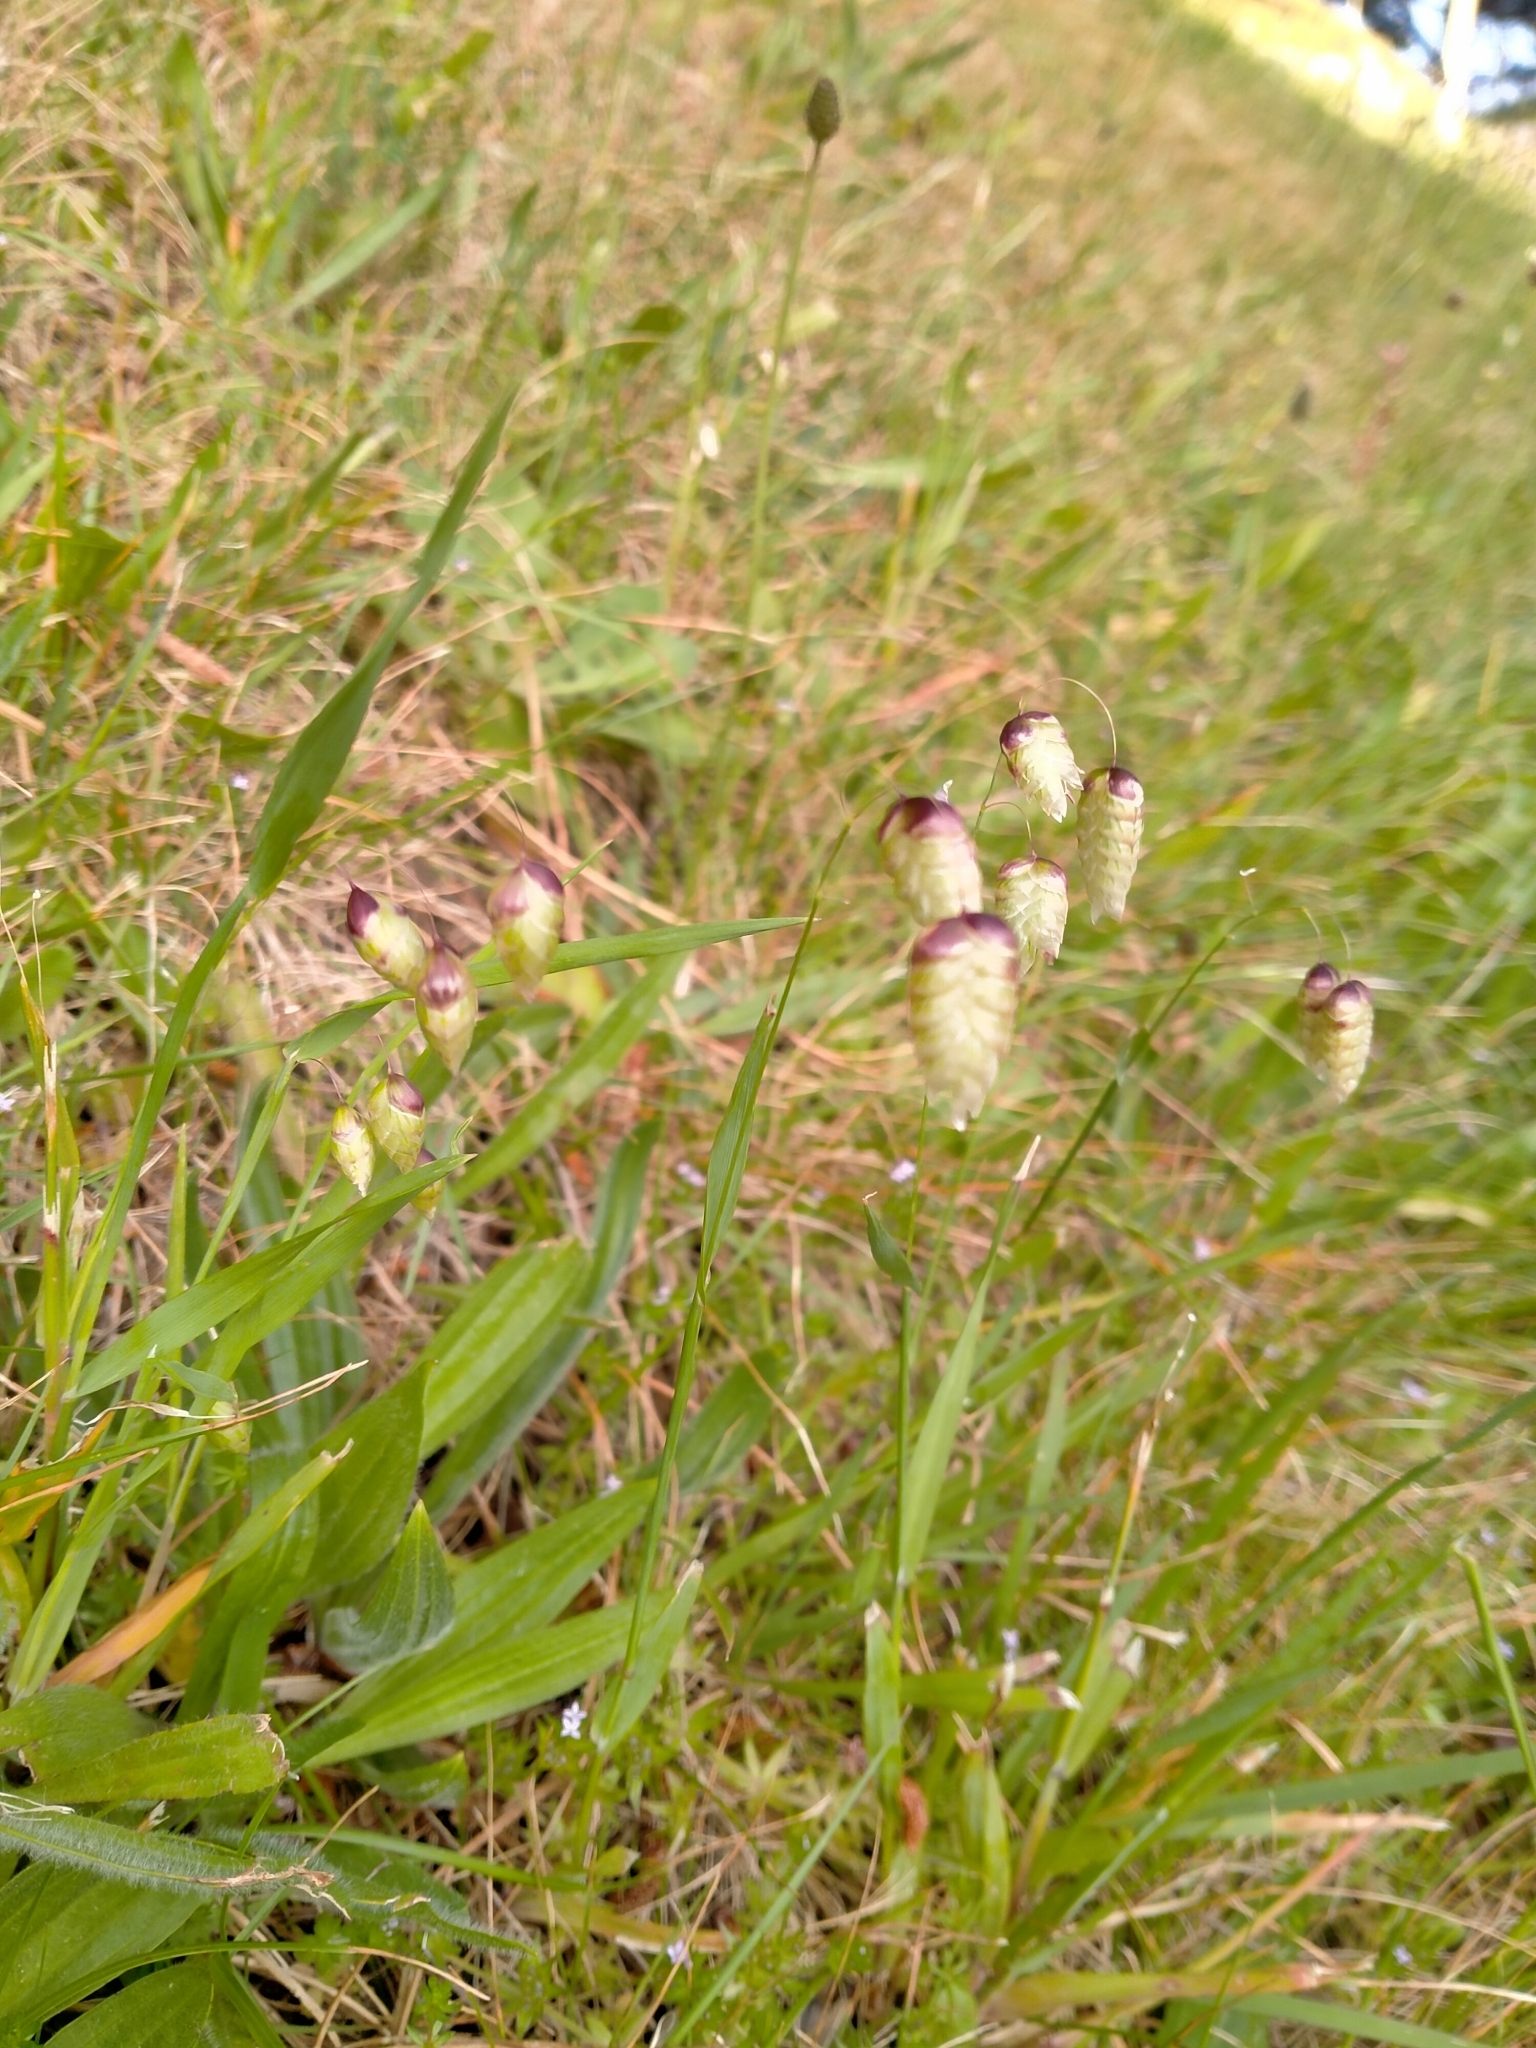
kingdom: Plantae
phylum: Tracheophyta
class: Liliopsida
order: Poales
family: Poaceae
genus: Briza
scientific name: Briza maxima
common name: Big quakinggrass
